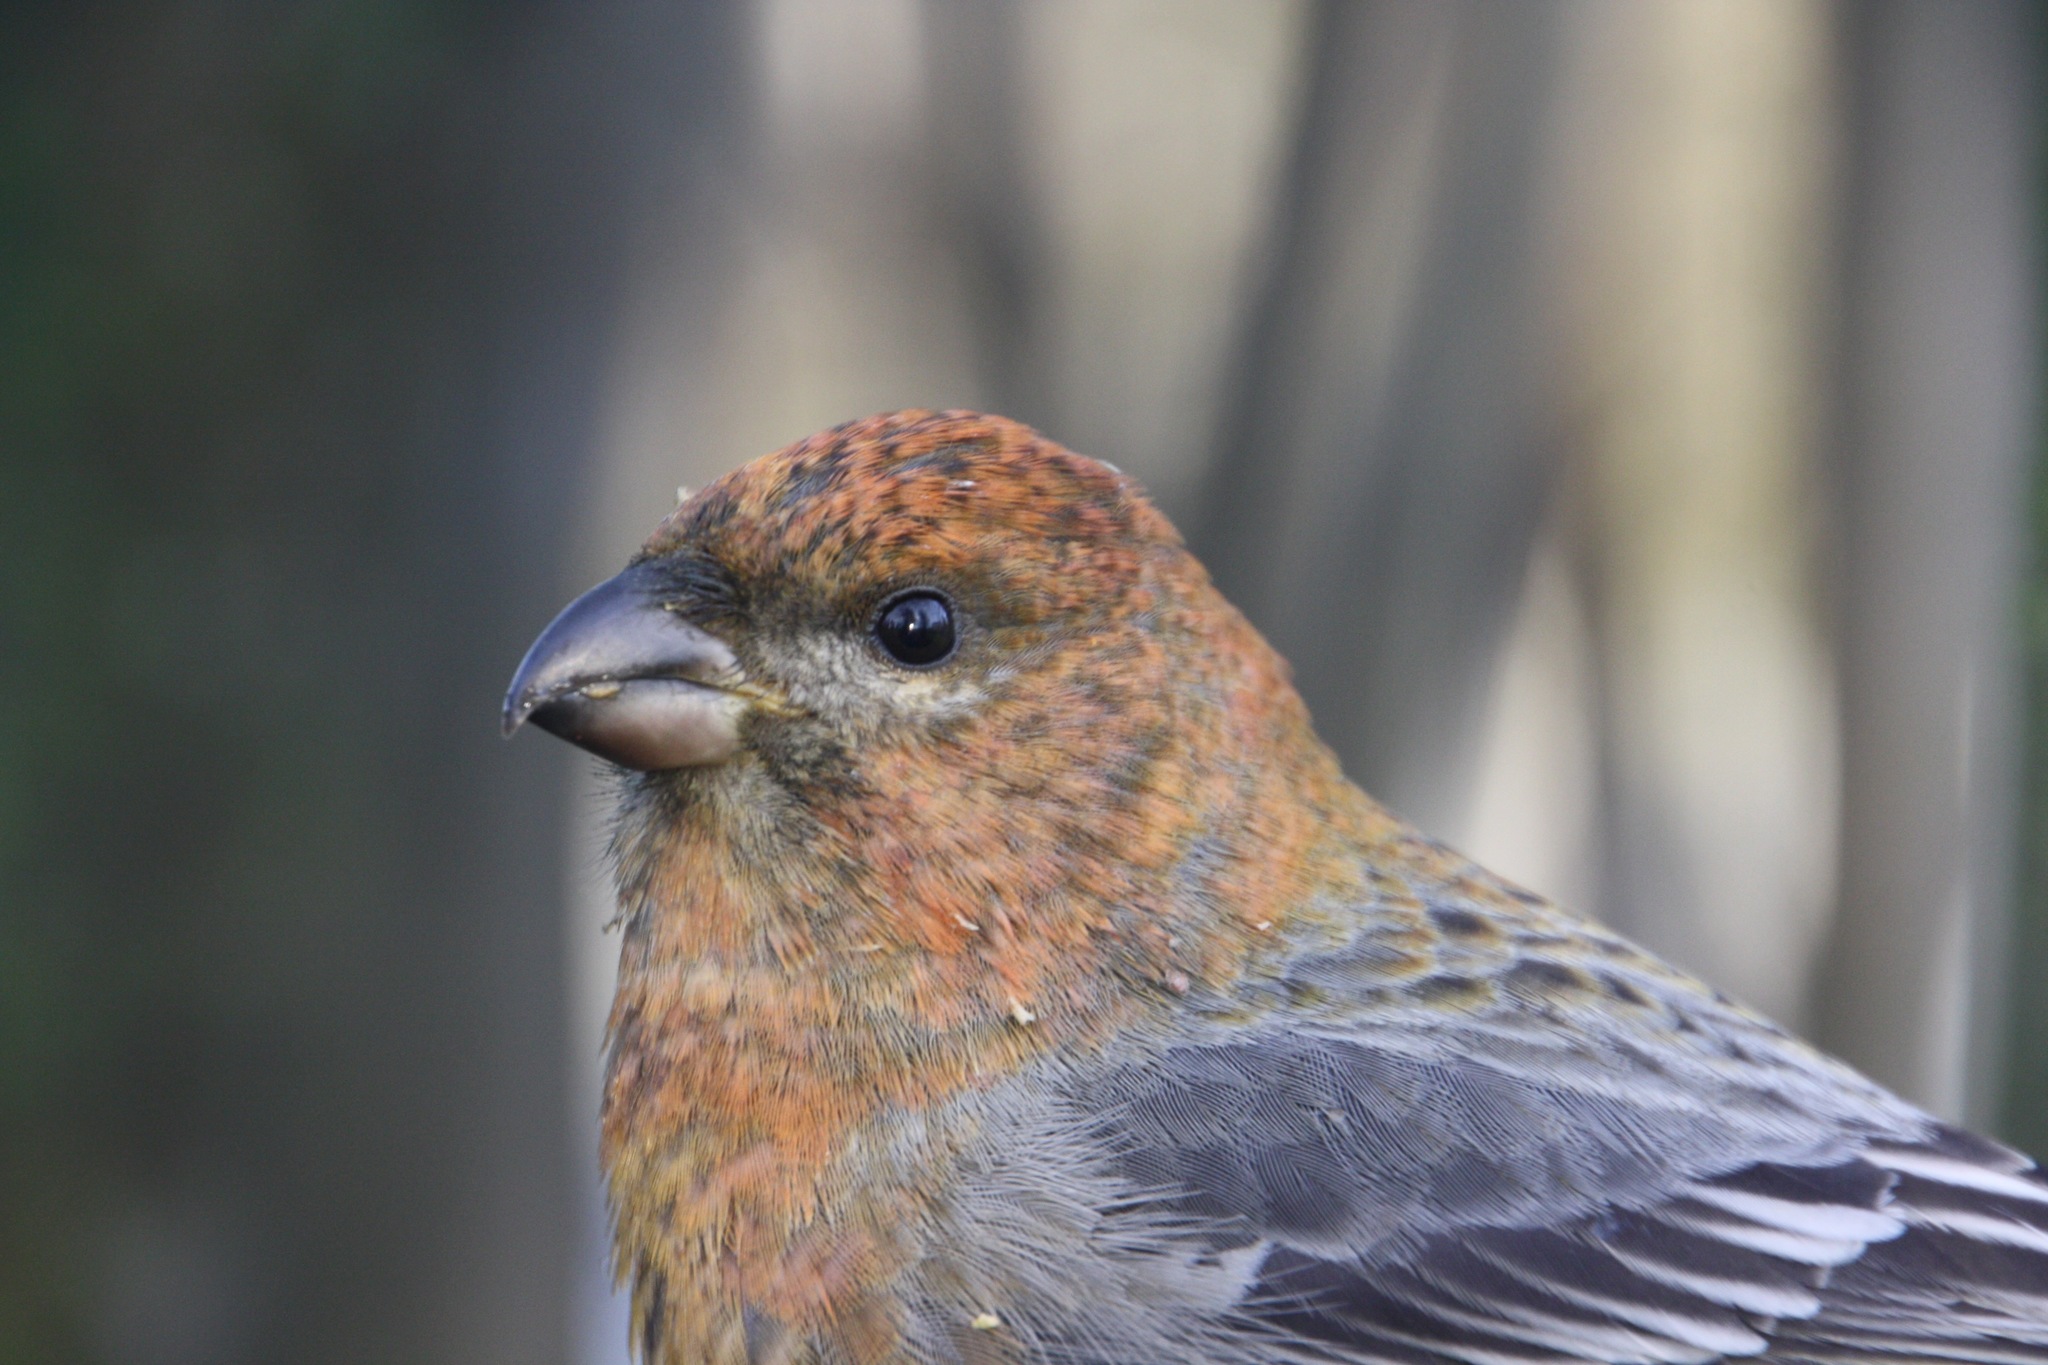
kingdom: Animalia
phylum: Chordata
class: Aves
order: Passeriformes
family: Fringillidae
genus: Pinicola
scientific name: Pinicola enucleator
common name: Pine grosbeak
